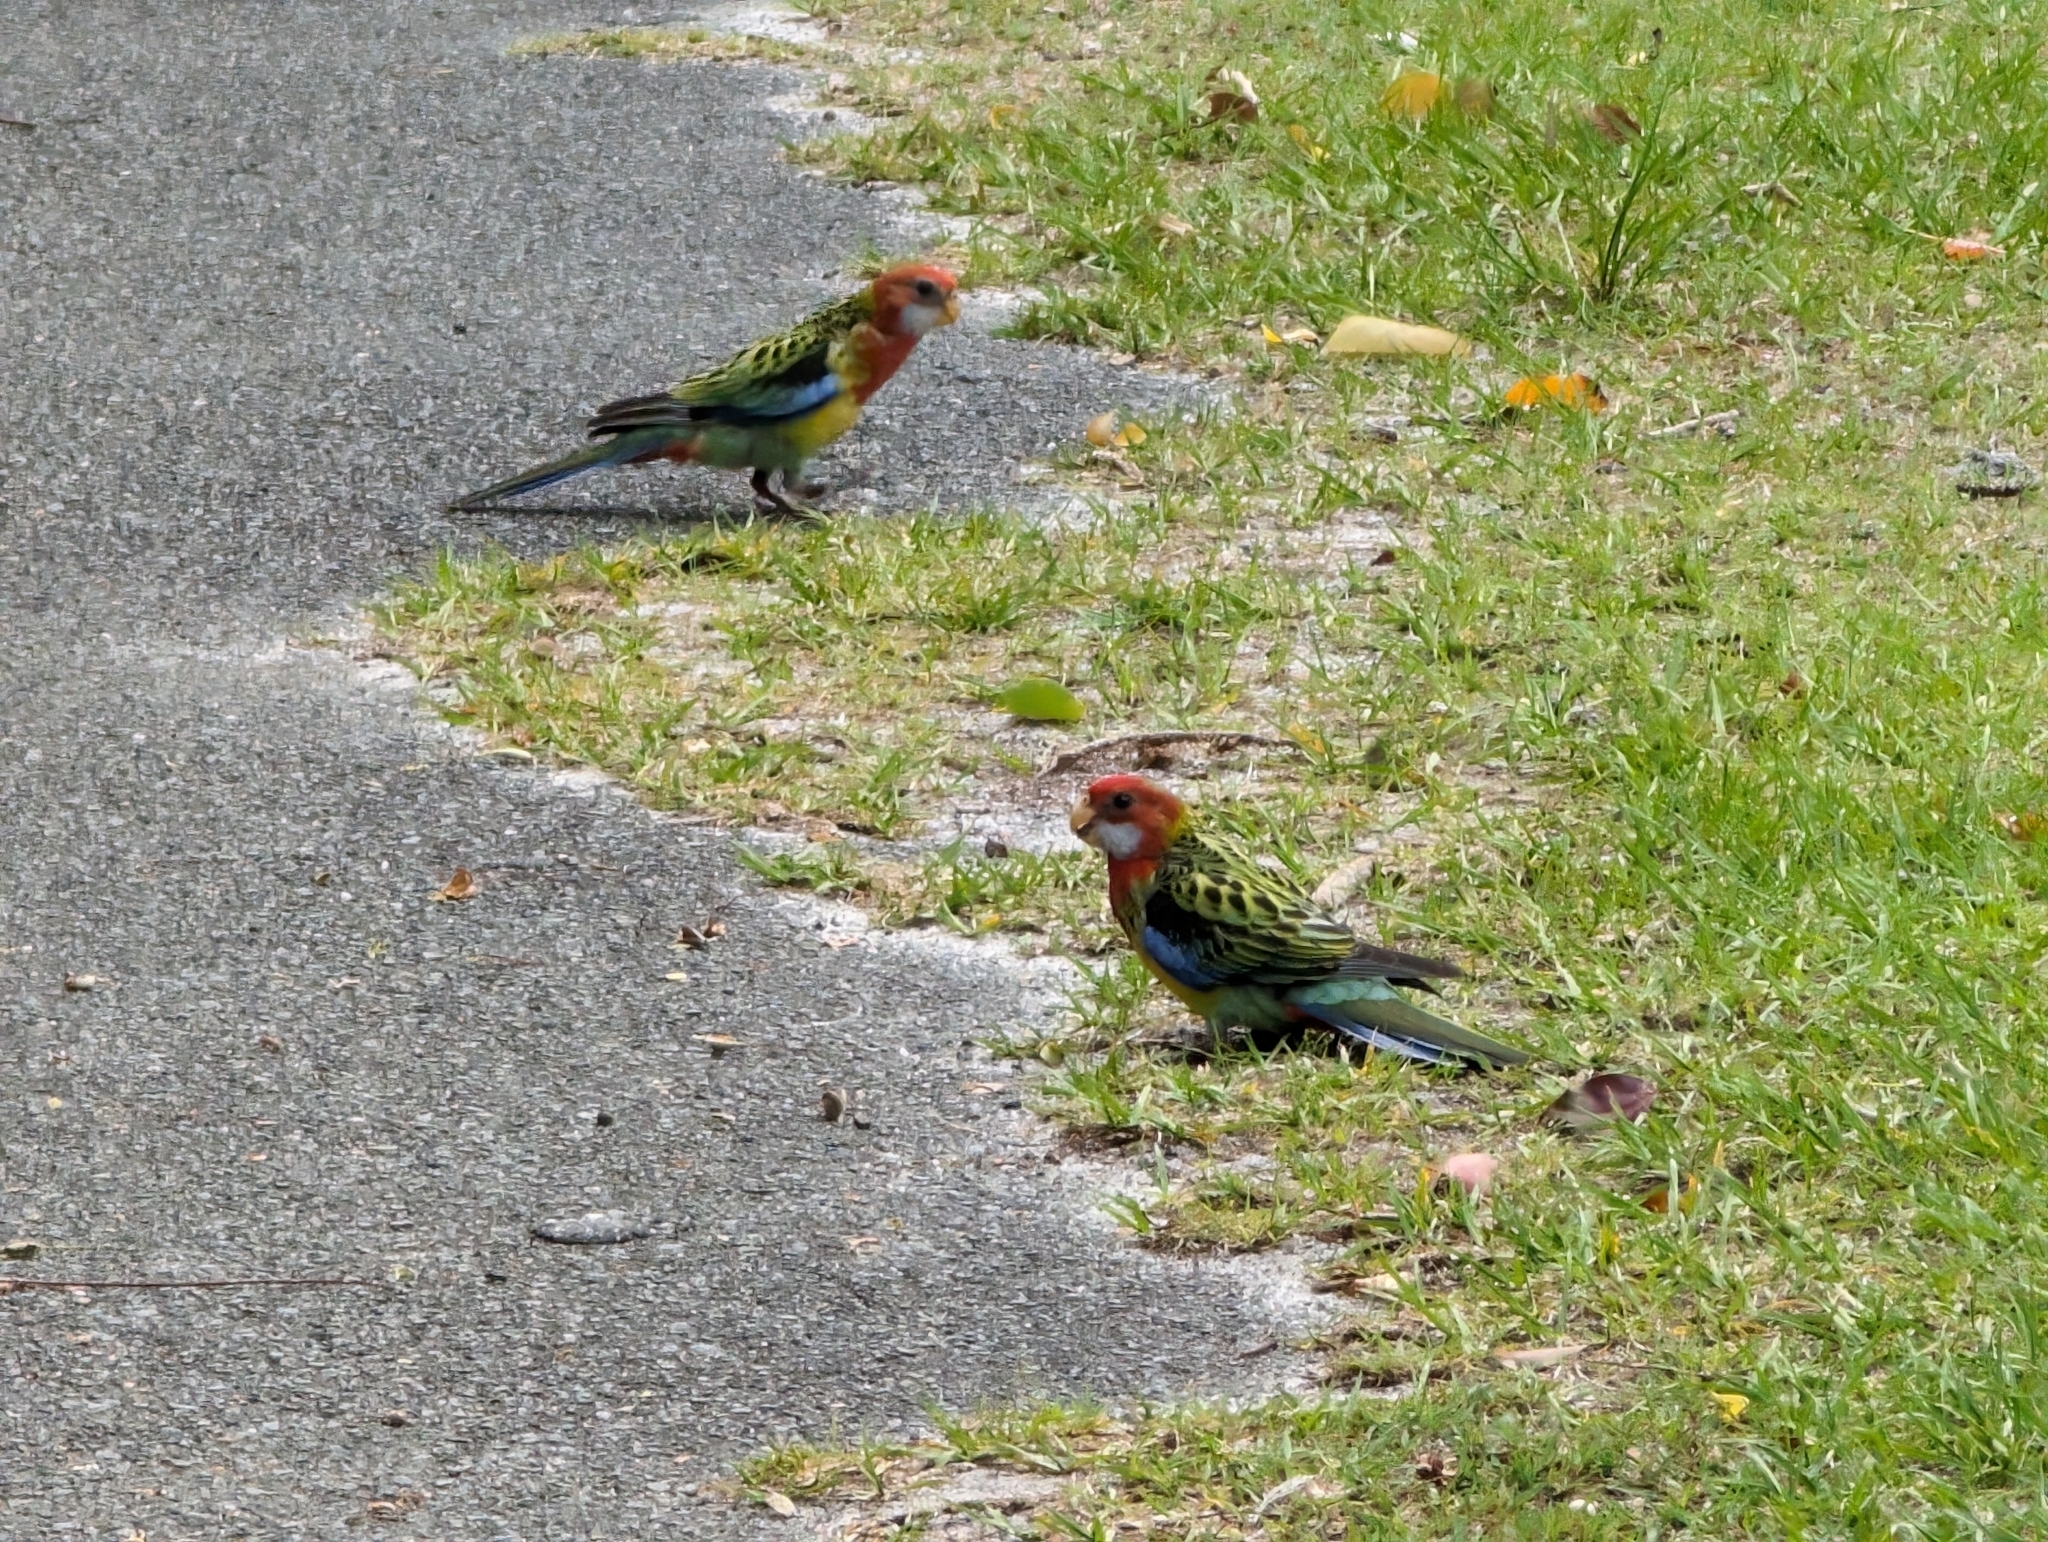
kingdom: Animalia
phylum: Chordata
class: Aves
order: Psittaciformes
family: Psittacidae
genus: Platycercus
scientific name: Platycercus eximius
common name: Eastern rosella
